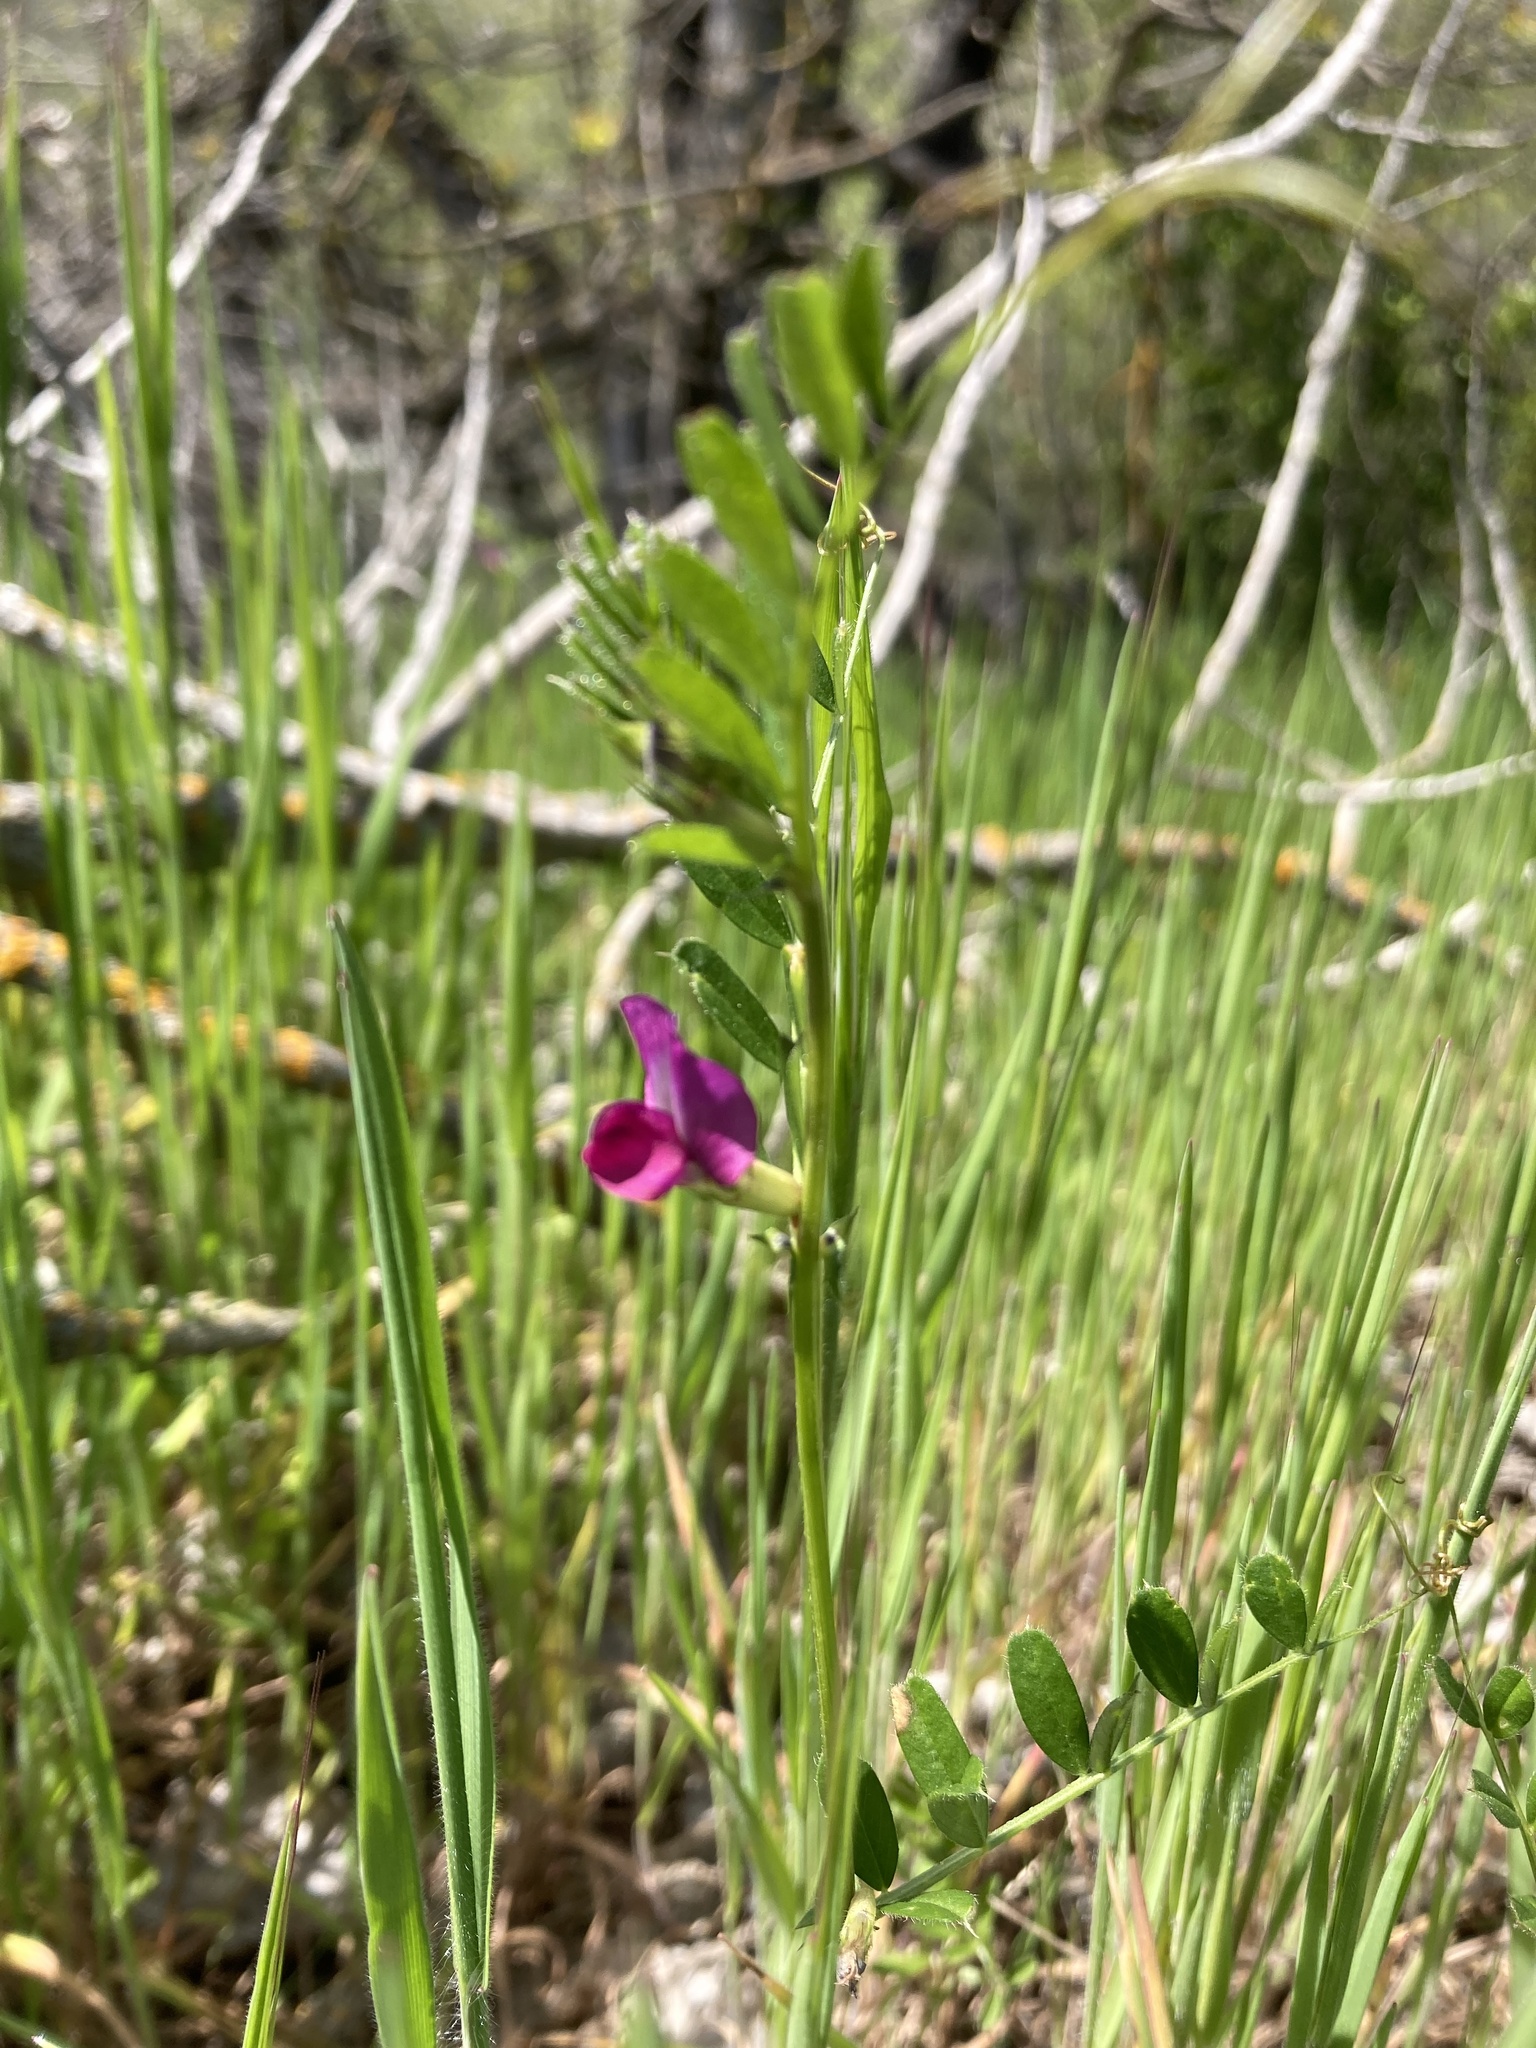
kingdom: Plantae
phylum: Tracheophyta
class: Magnoliopsida
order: Fabales
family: Fabaceae
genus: Vicia
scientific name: Vicia sativa
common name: Garden vetch
